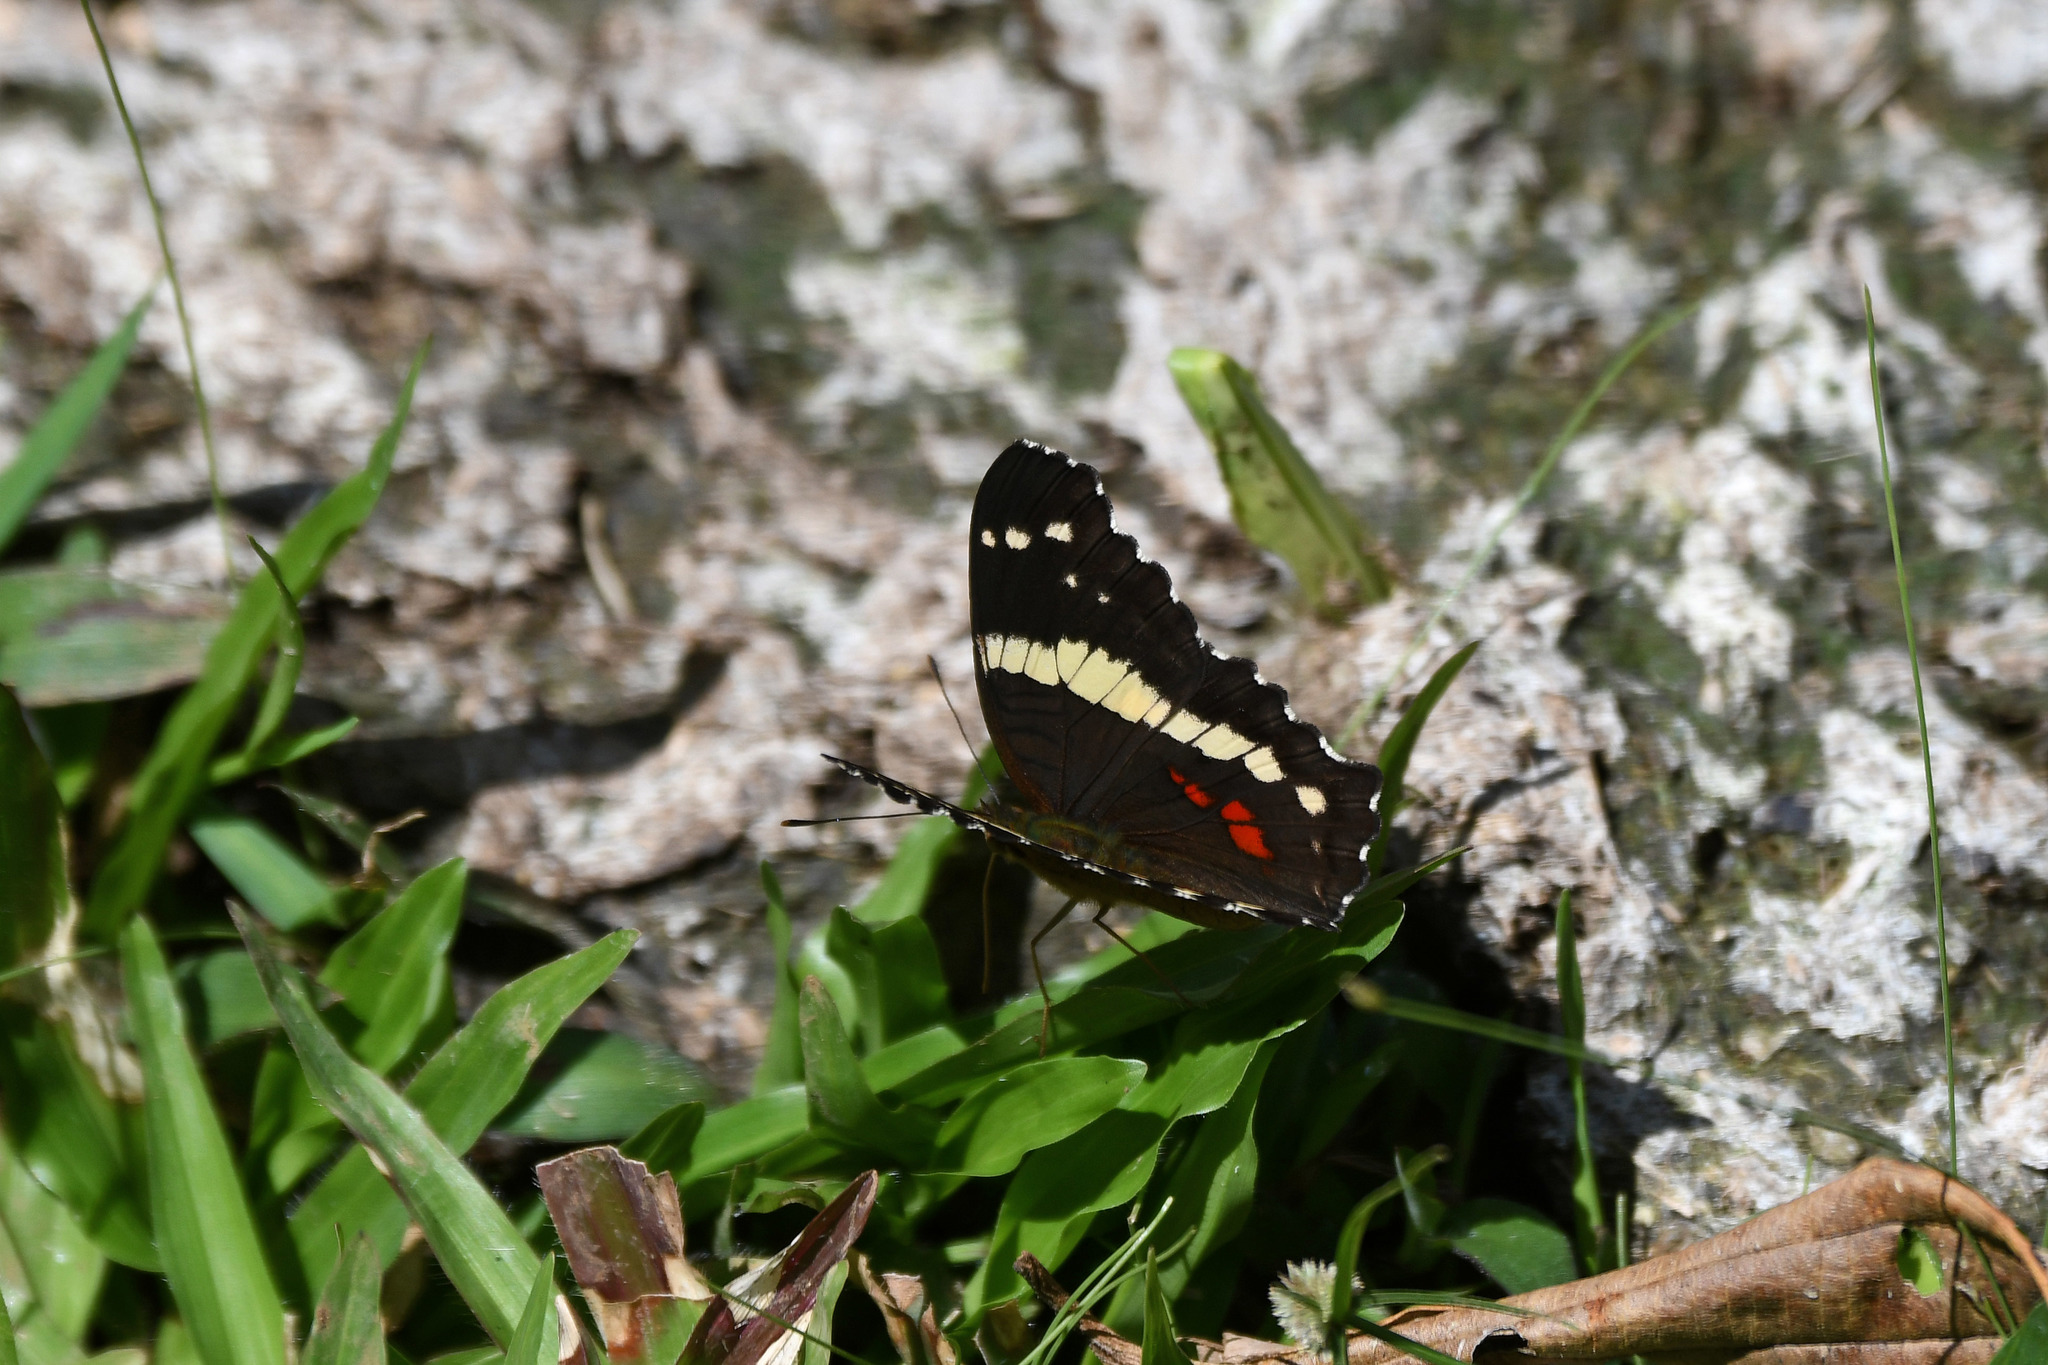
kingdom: Animalia
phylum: Arthropoda
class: Insecta
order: Lepidoptera
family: Nymphalidae
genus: Anartia
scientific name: Anartia fatima
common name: Banded peacock
